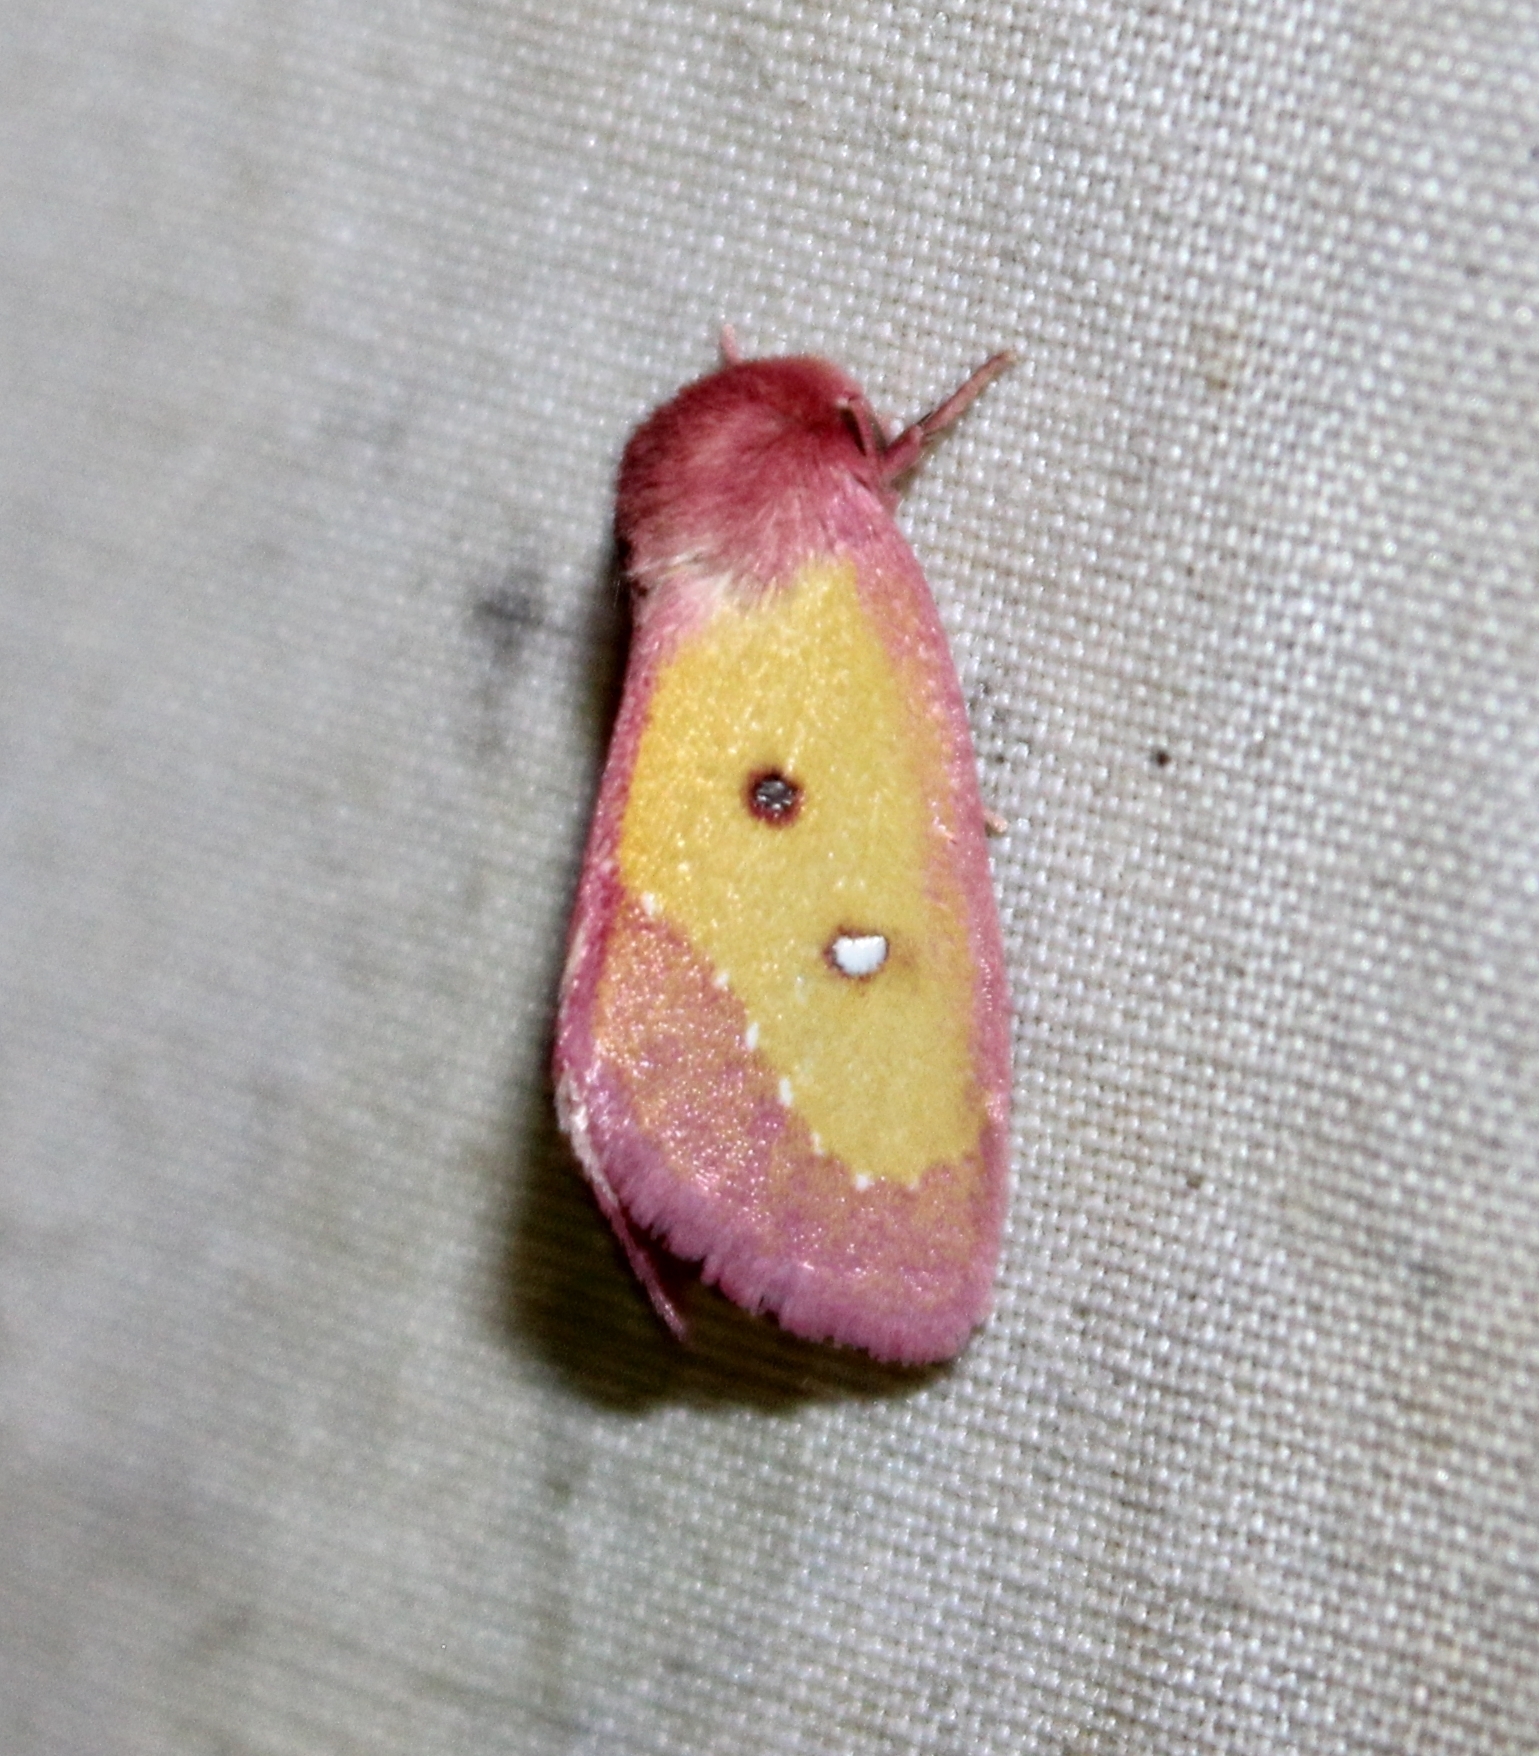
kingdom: Animalia
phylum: Arthropoda
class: Insecta
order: Lepidoptera
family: Noctuidae
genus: Derrima
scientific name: Derrima stellata
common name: Pink star moth
